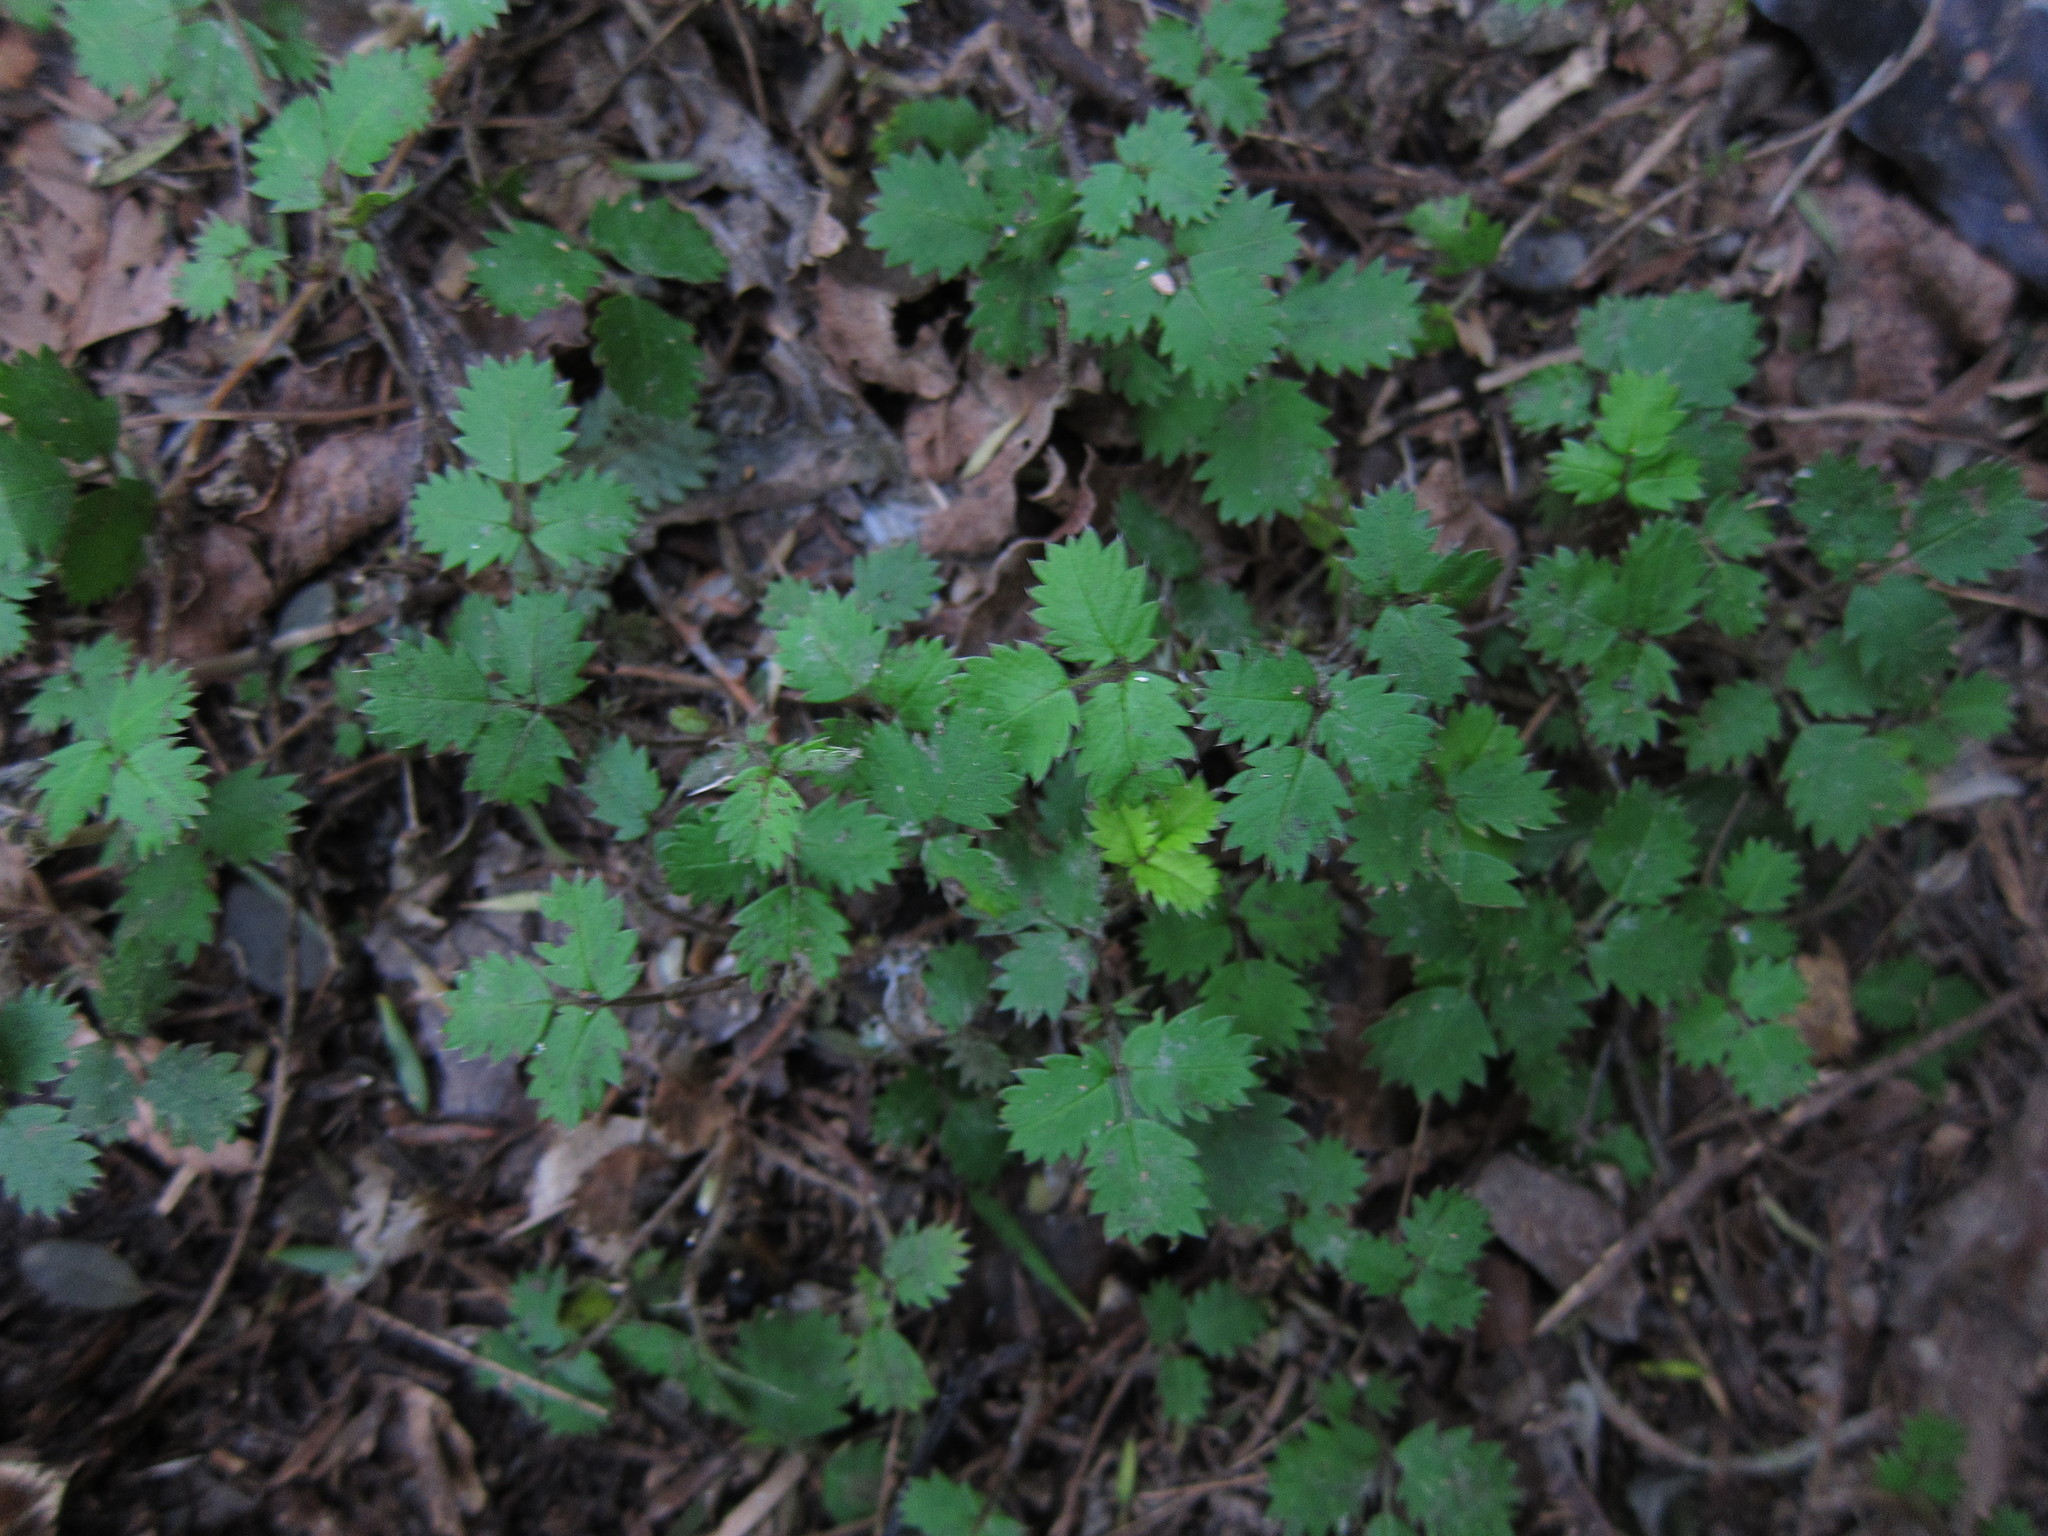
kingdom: Plantae
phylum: Tracheophyta
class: Magnoliopsida
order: Rosales
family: Rosaceae
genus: Acaena
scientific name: Acaena juvenca
